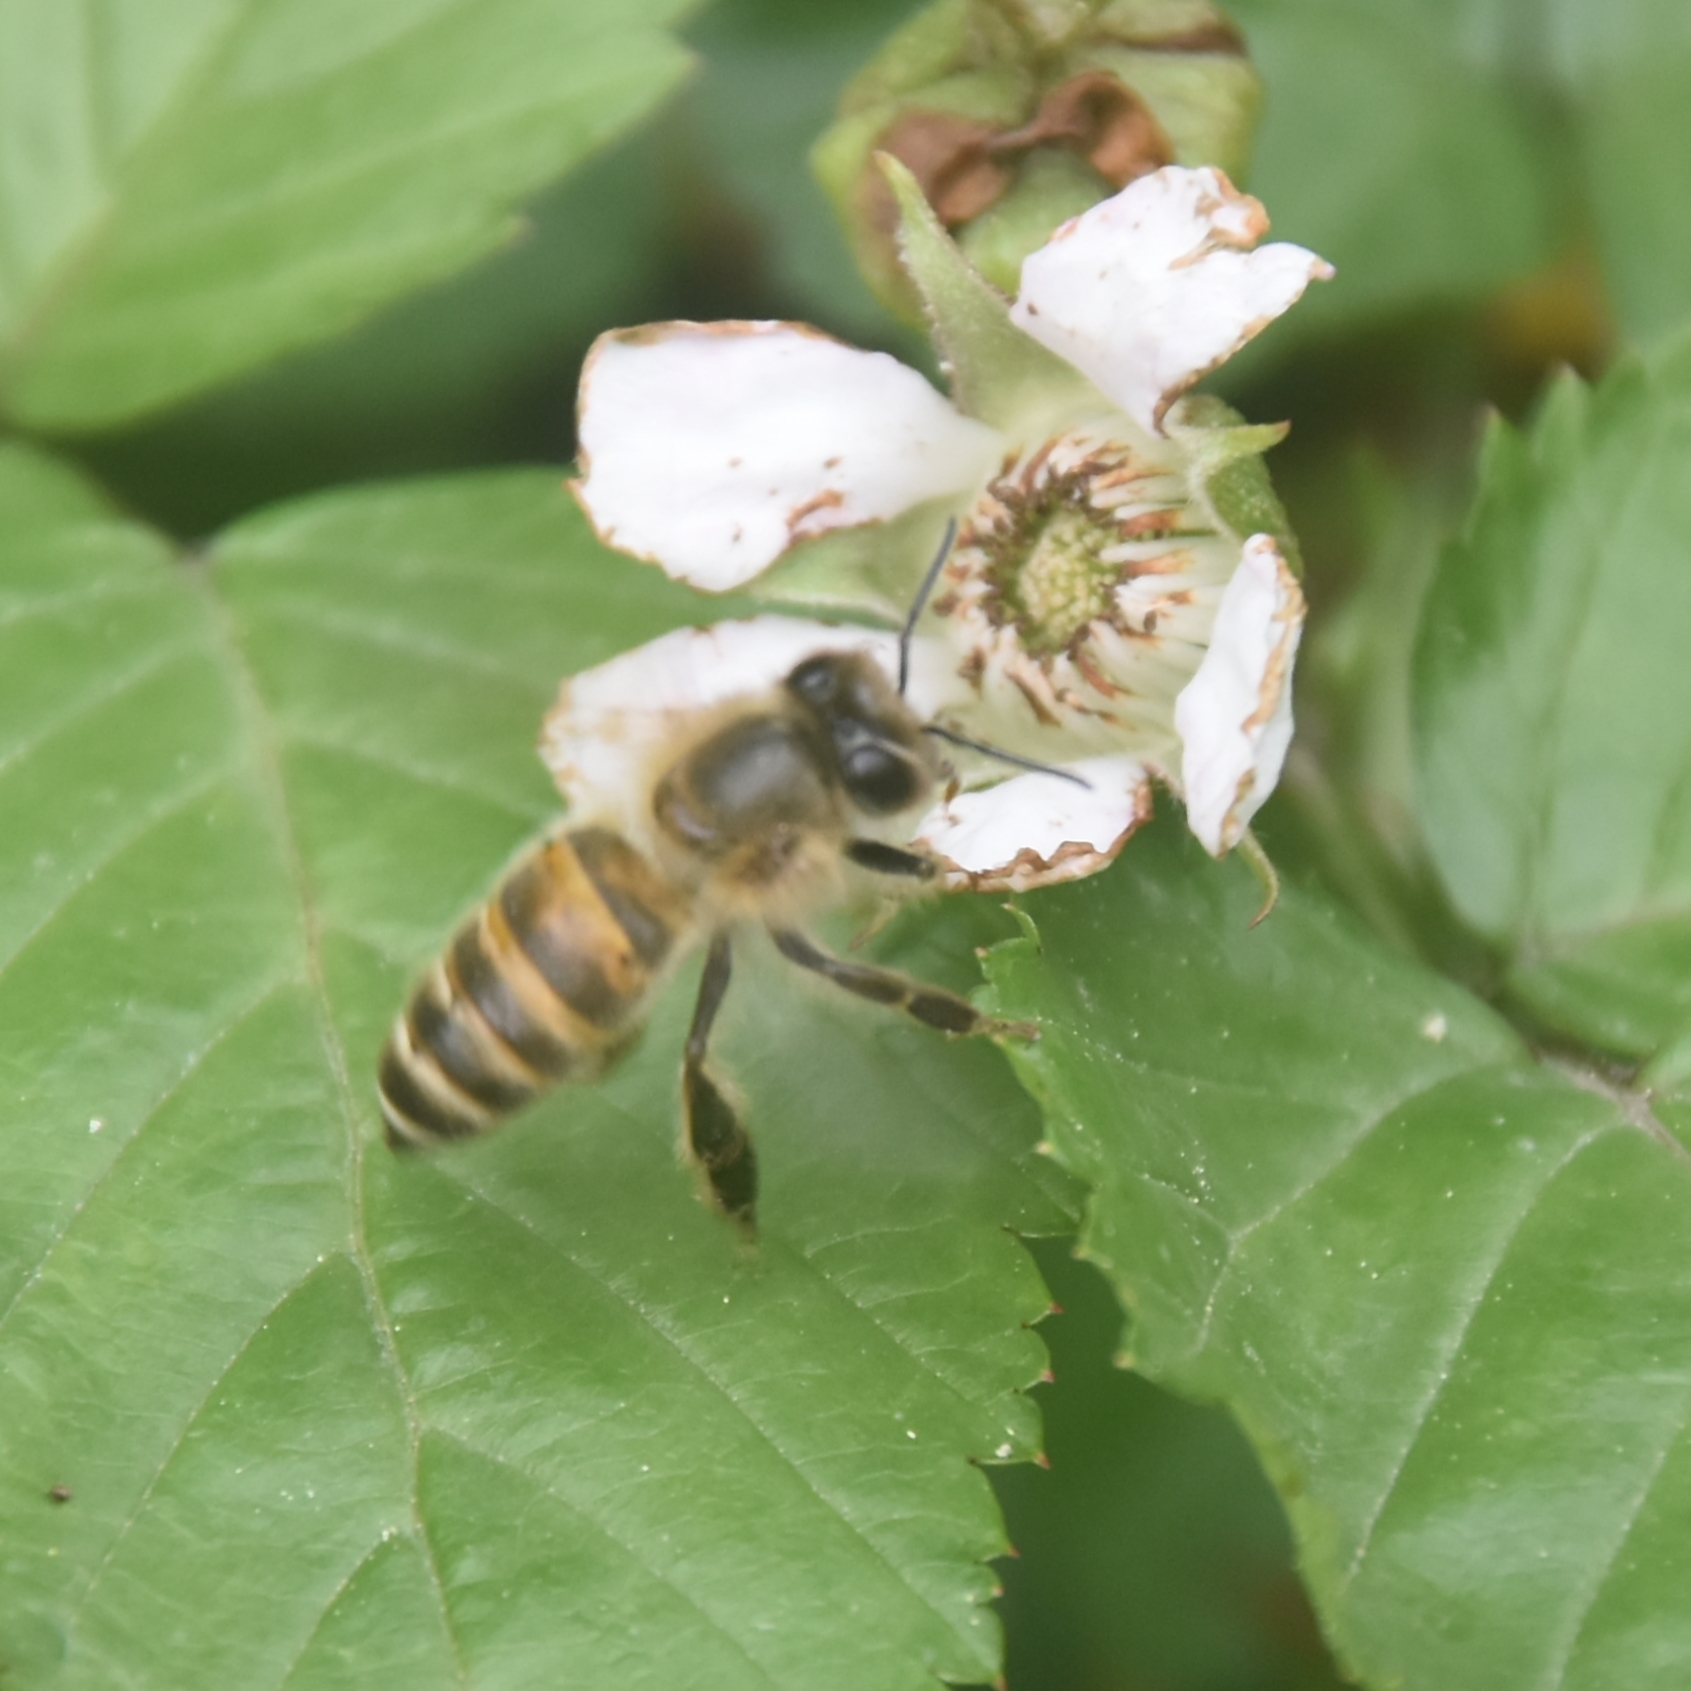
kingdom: Animalia
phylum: Arthropoda
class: Insecta
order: Hymenoptera
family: Apidae
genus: Apis
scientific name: Apis cerana
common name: Honey bee
